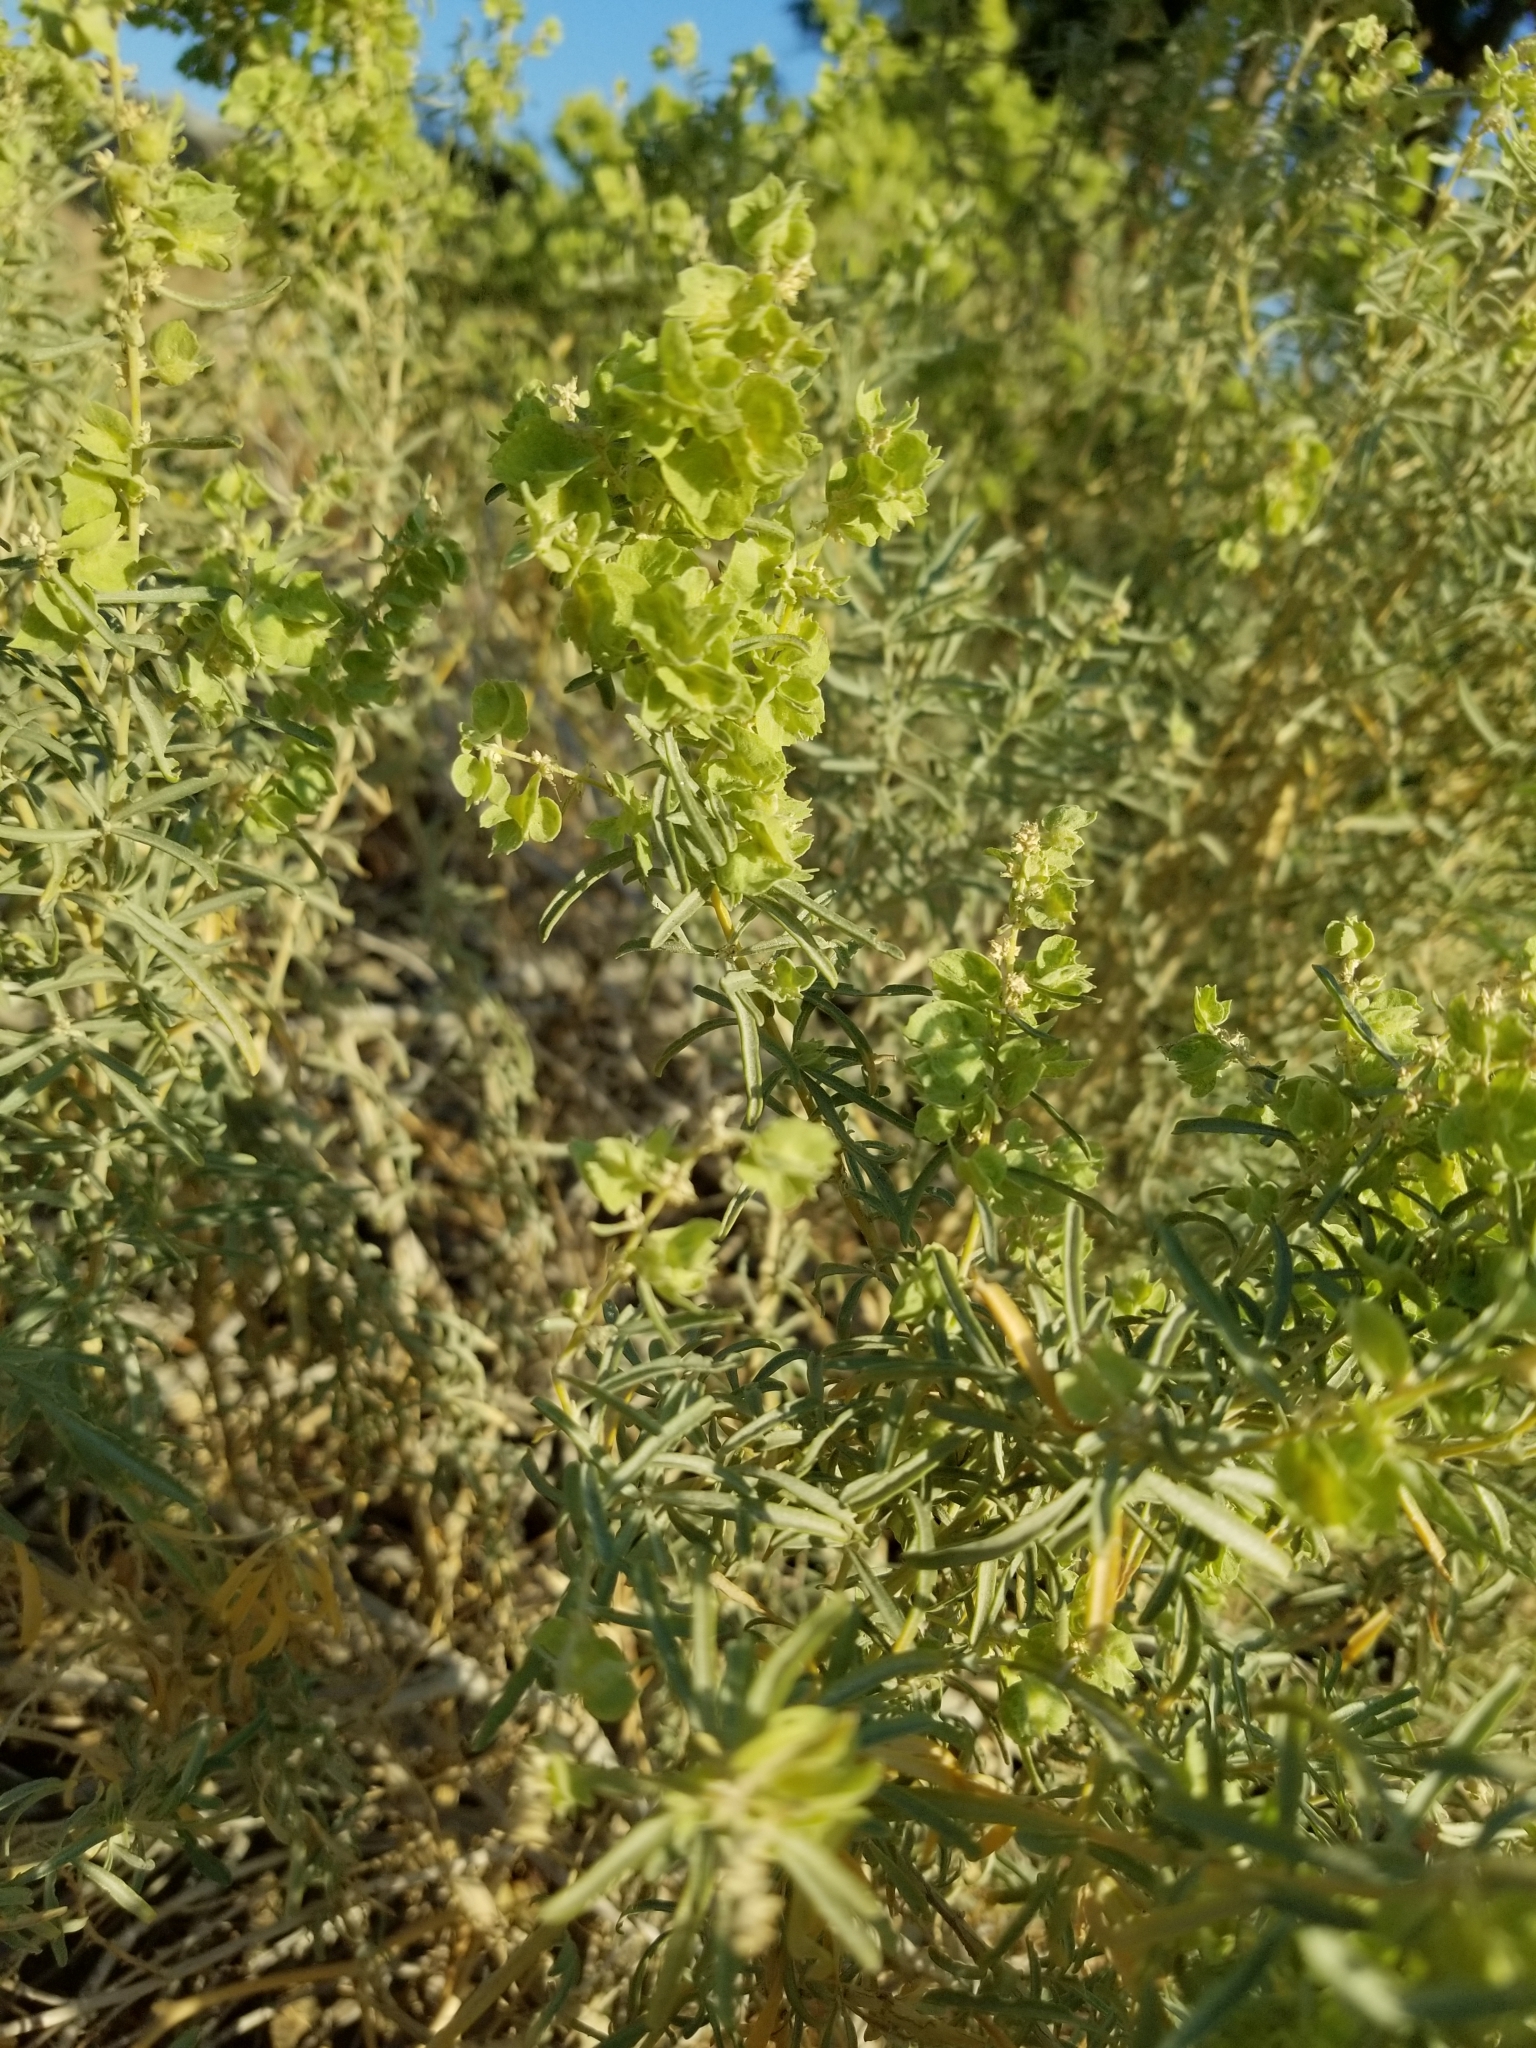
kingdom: Plantae
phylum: Tracheophyta
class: Magnoliopsida
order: Caryophyllales
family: Amaranthaceae
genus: Atriplex
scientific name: Atriplex canescens
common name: Four-wing saltbush
